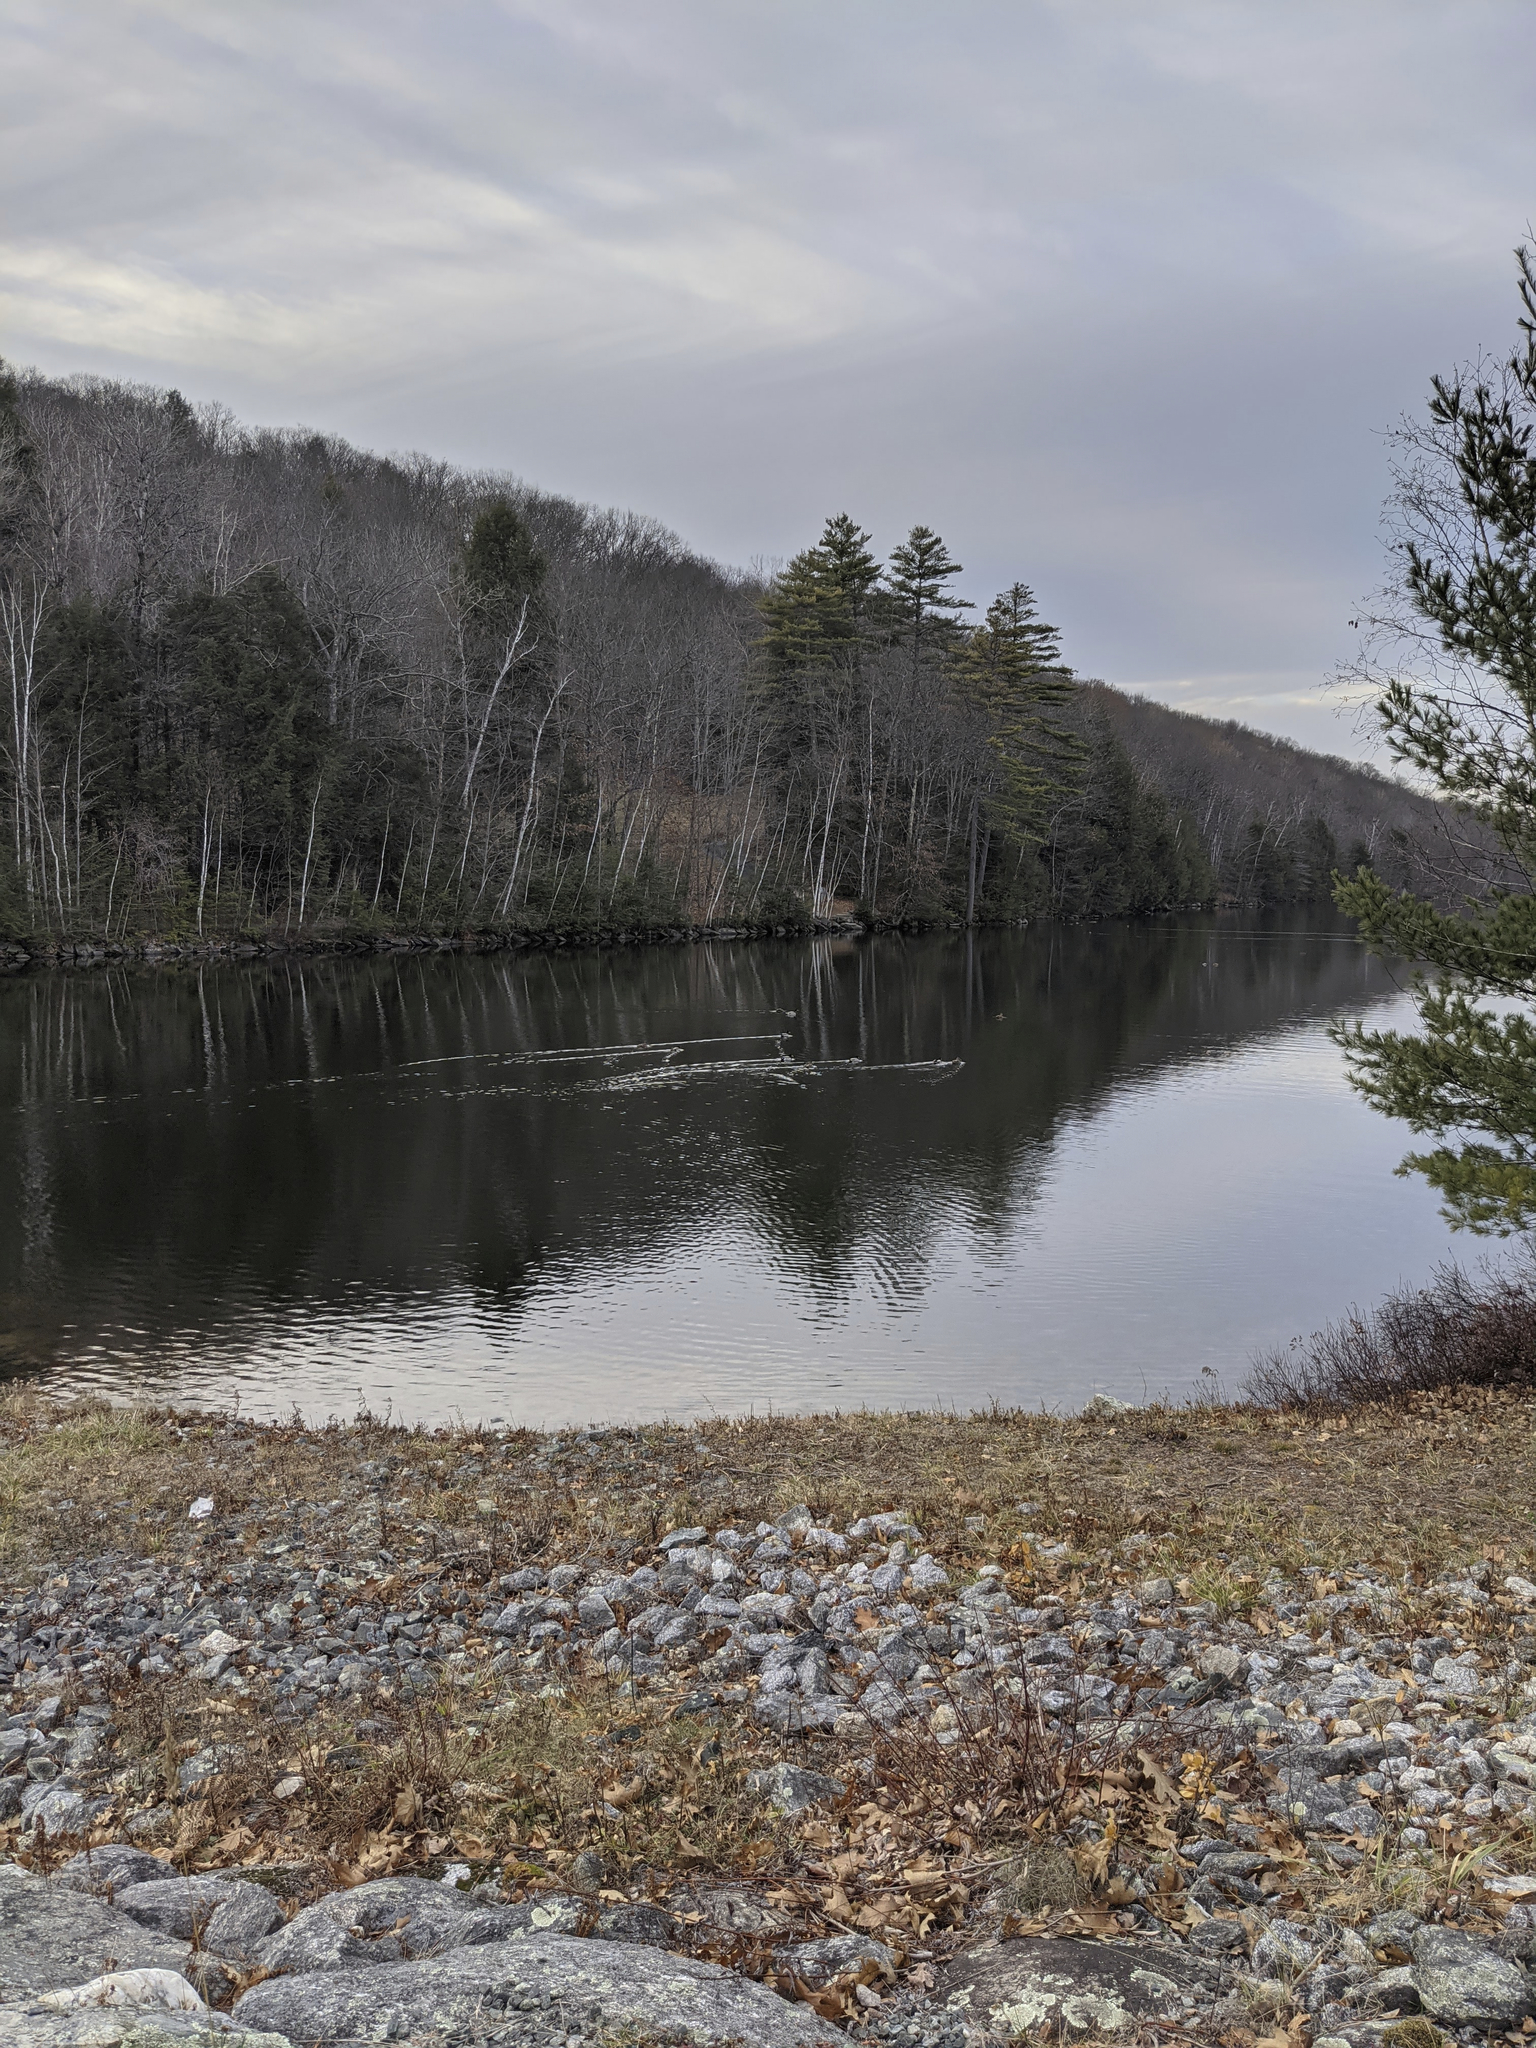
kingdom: Animalia
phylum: Chordata
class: Aves
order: Anseriformes
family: Anatidae
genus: Anas
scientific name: Anas platyrhynchos
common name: Mallard
